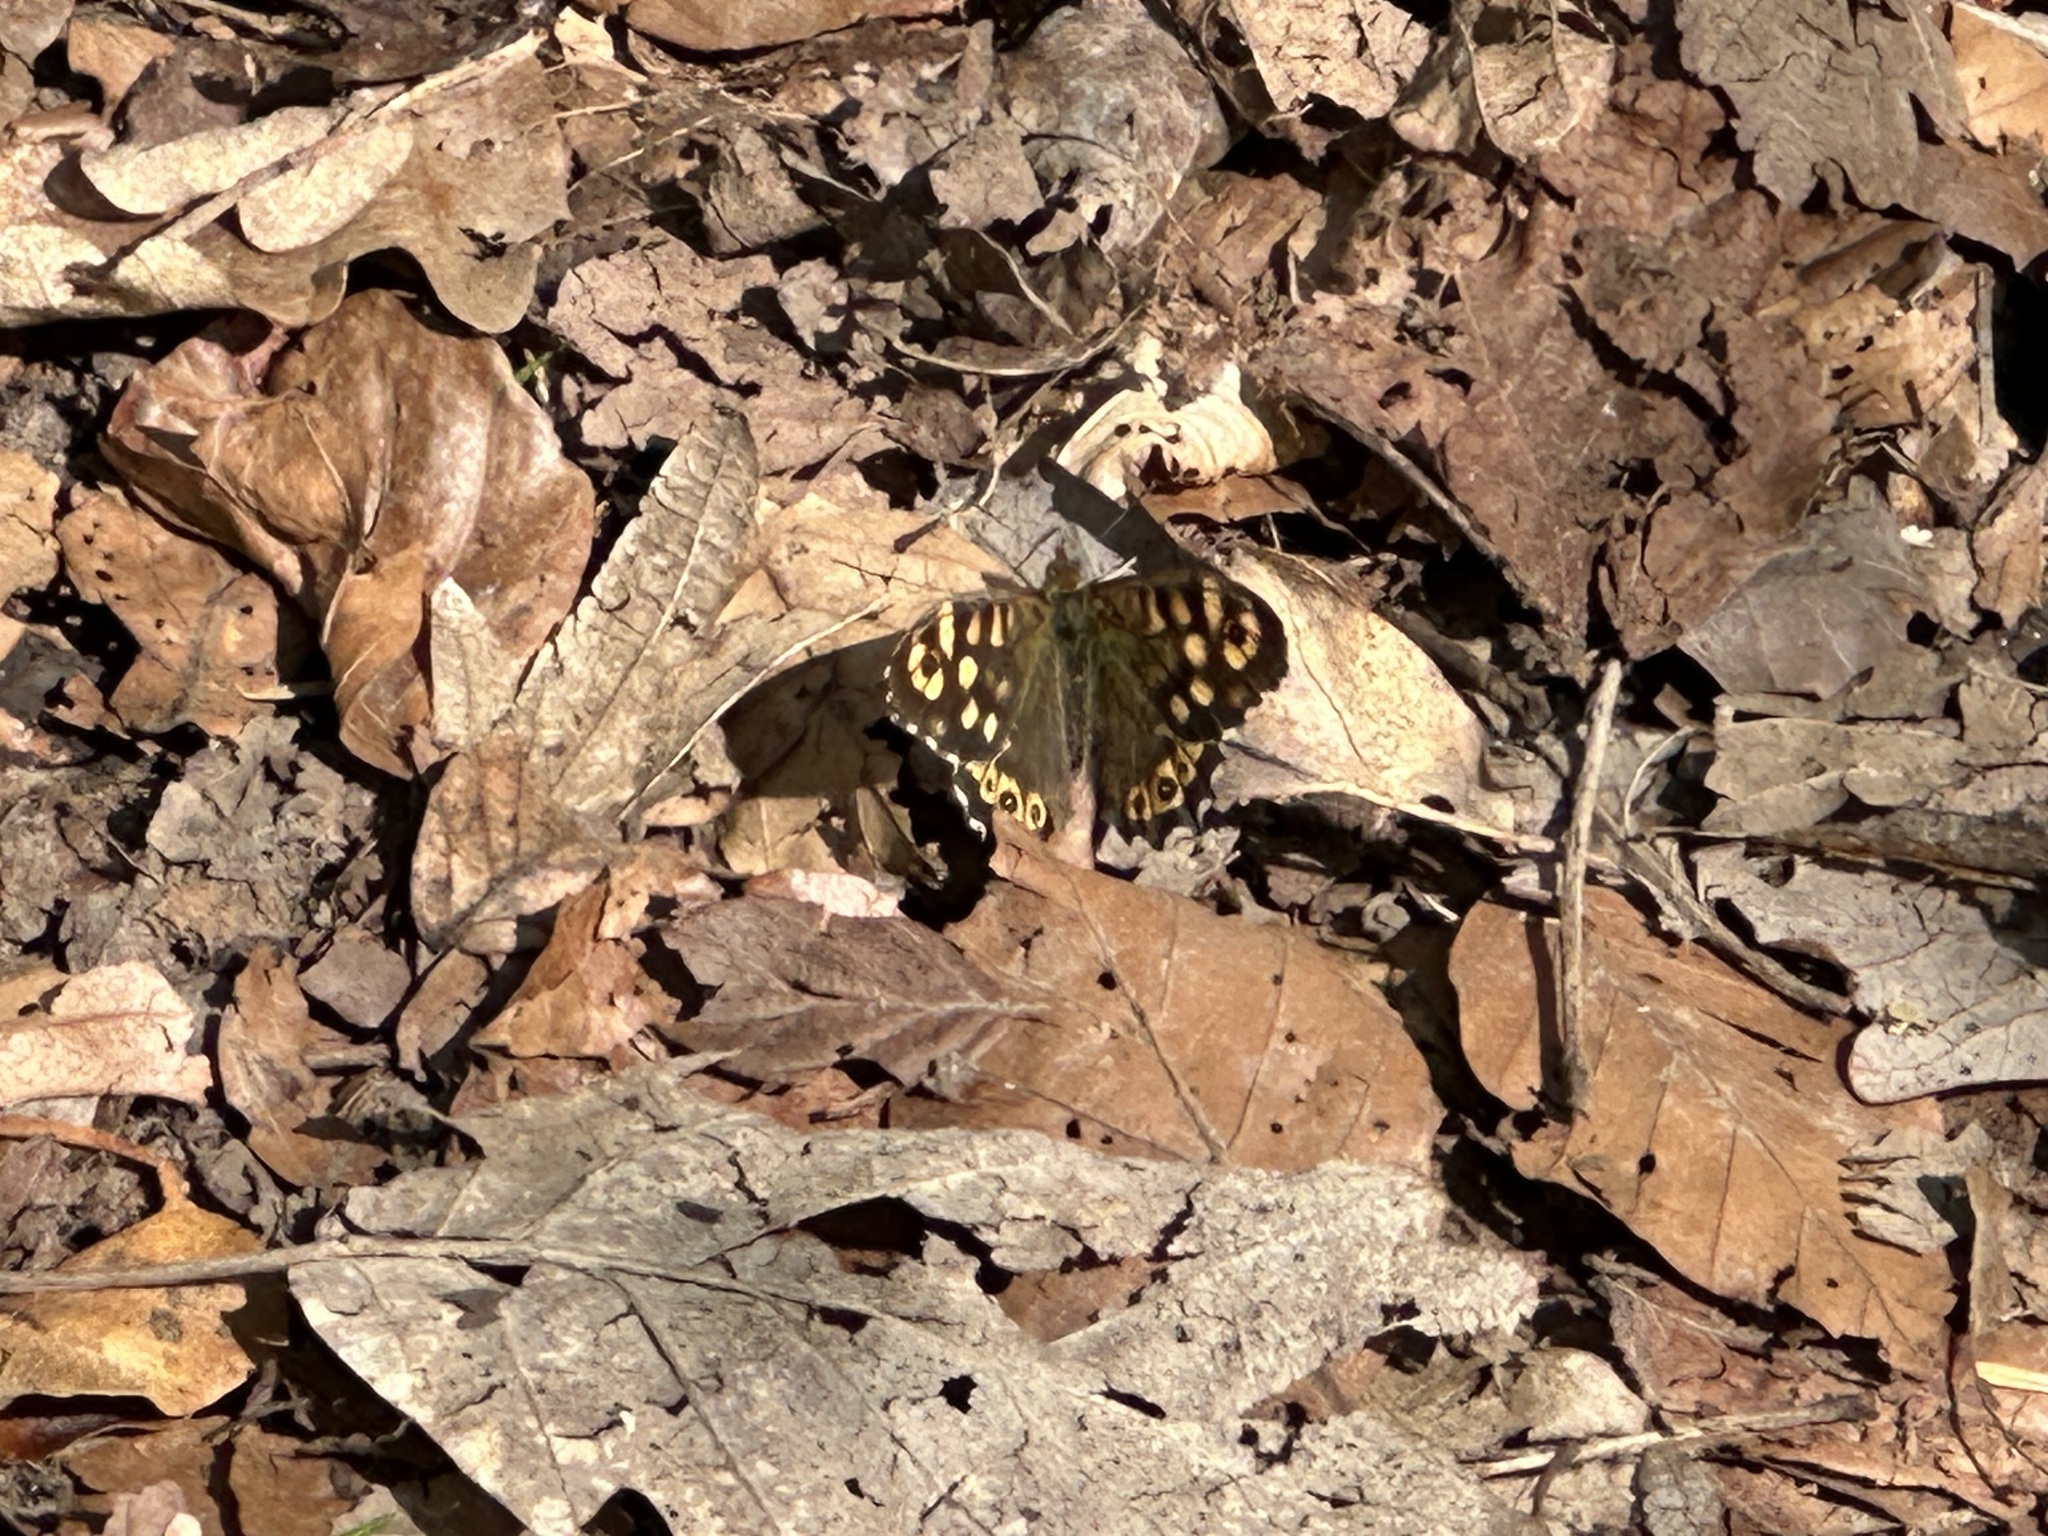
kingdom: Animalia
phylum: Arthropoda
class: Insecta
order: Lepidoptera
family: Nymphalidae
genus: Pararge
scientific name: Pararge aegeria
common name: Speckled wood
